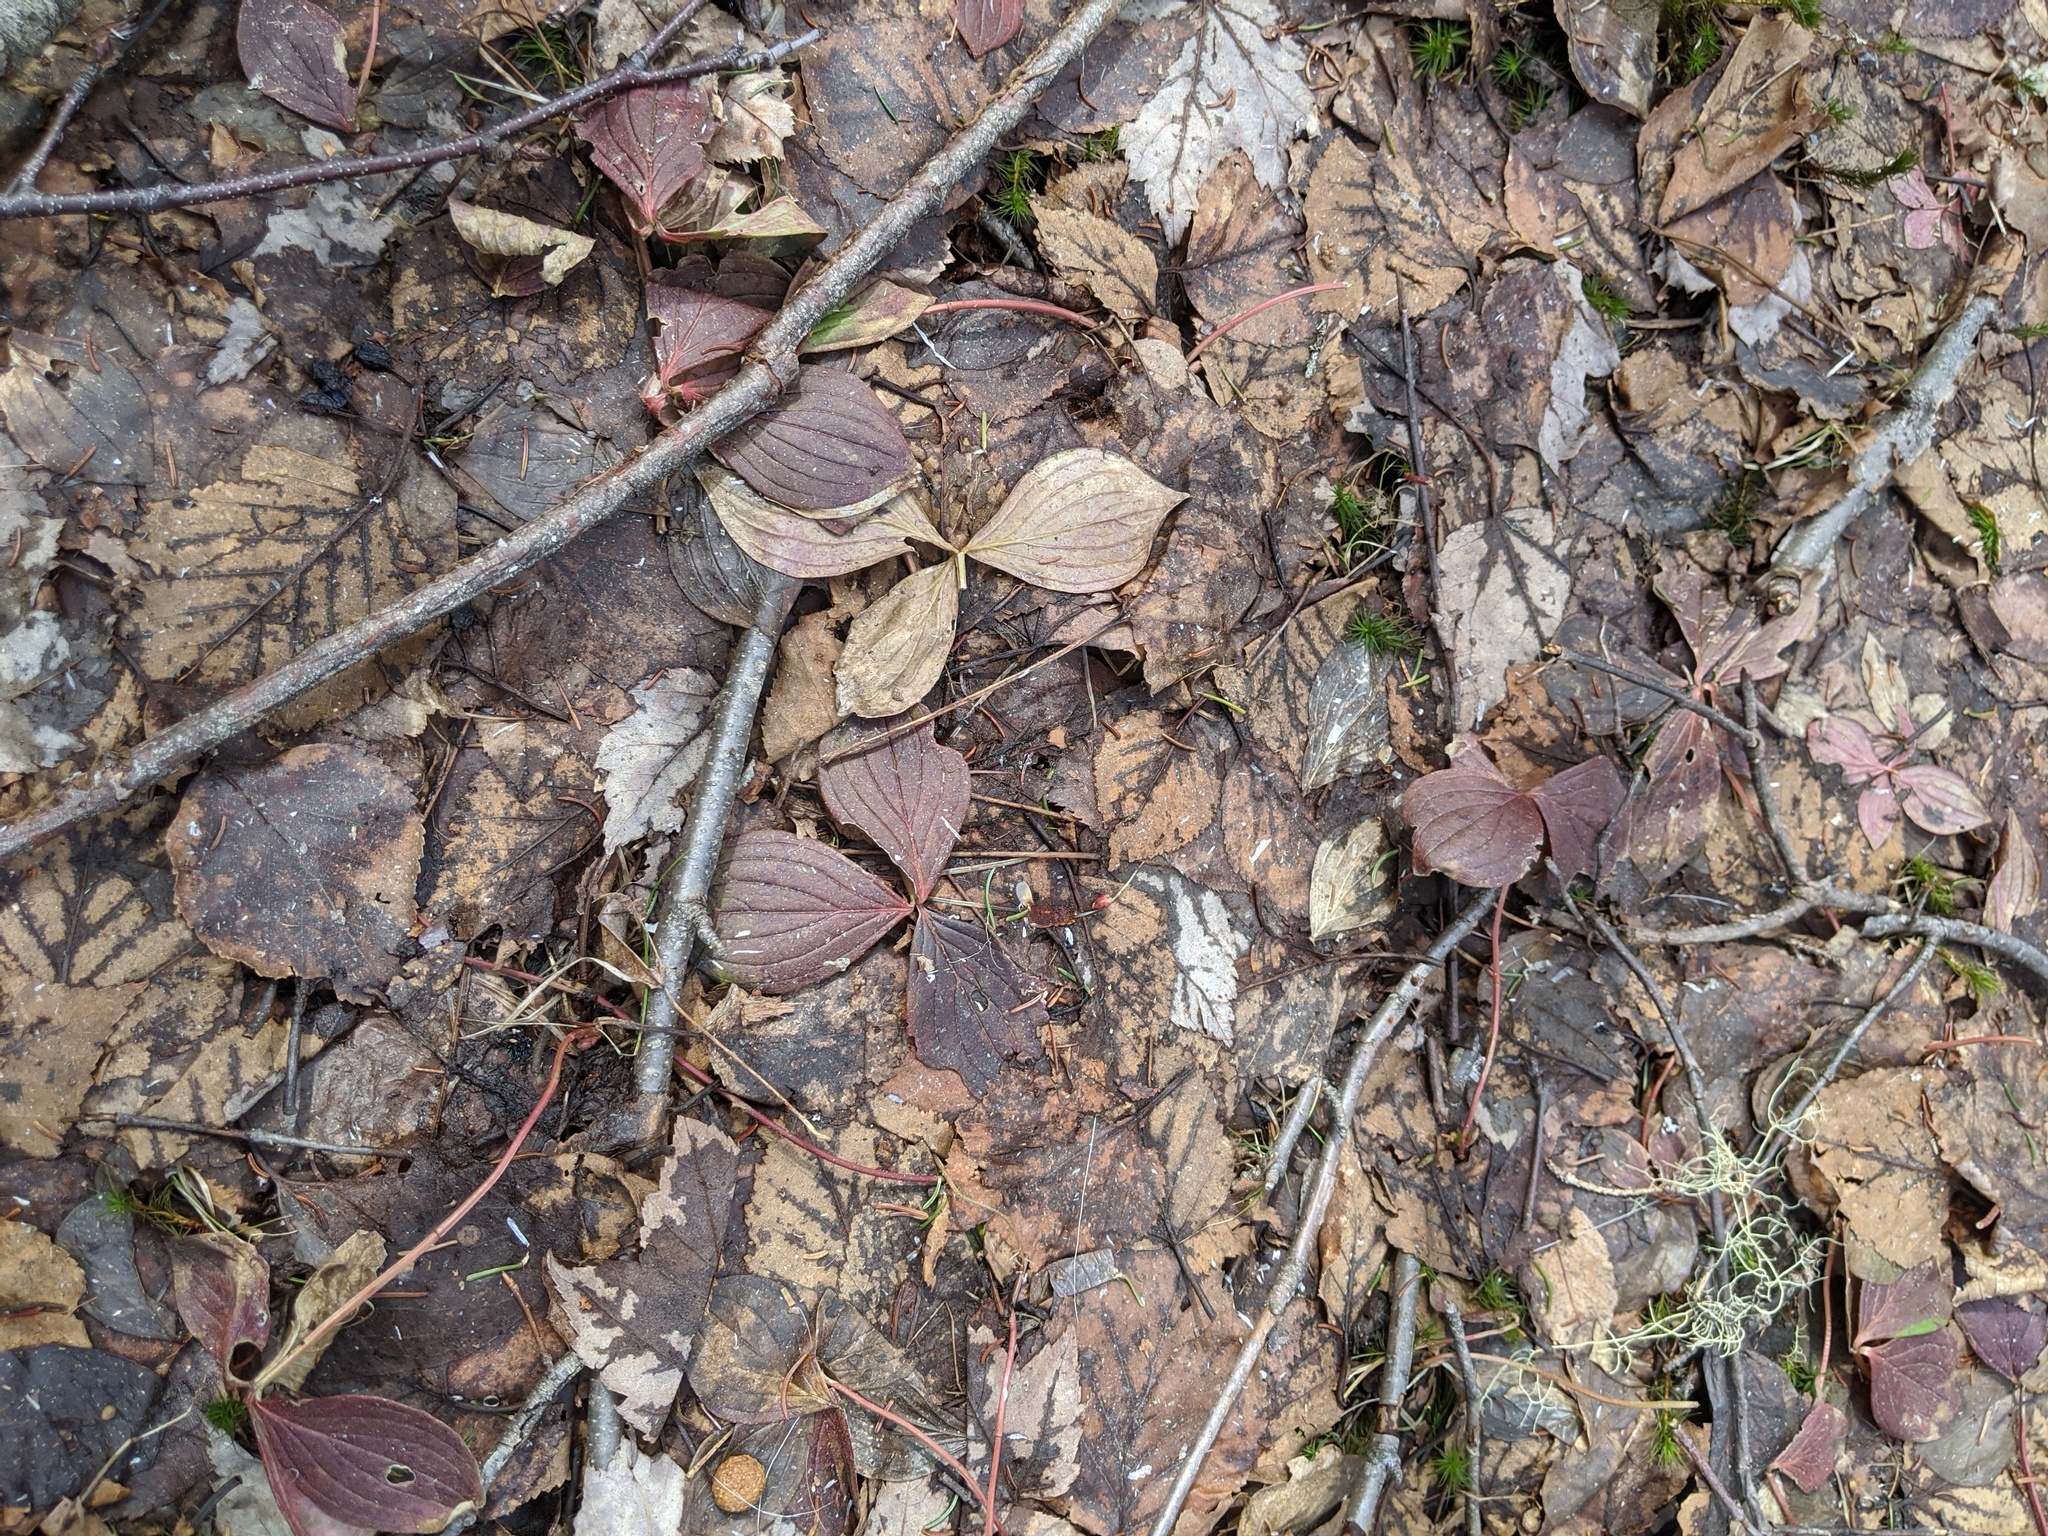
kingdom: Plantae
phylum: Tracheophyta
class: Magnoliopsida
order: Cornales
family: Cornaceae
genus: Cornus
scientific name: Cornus canadensis
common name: Creeping dogwood
